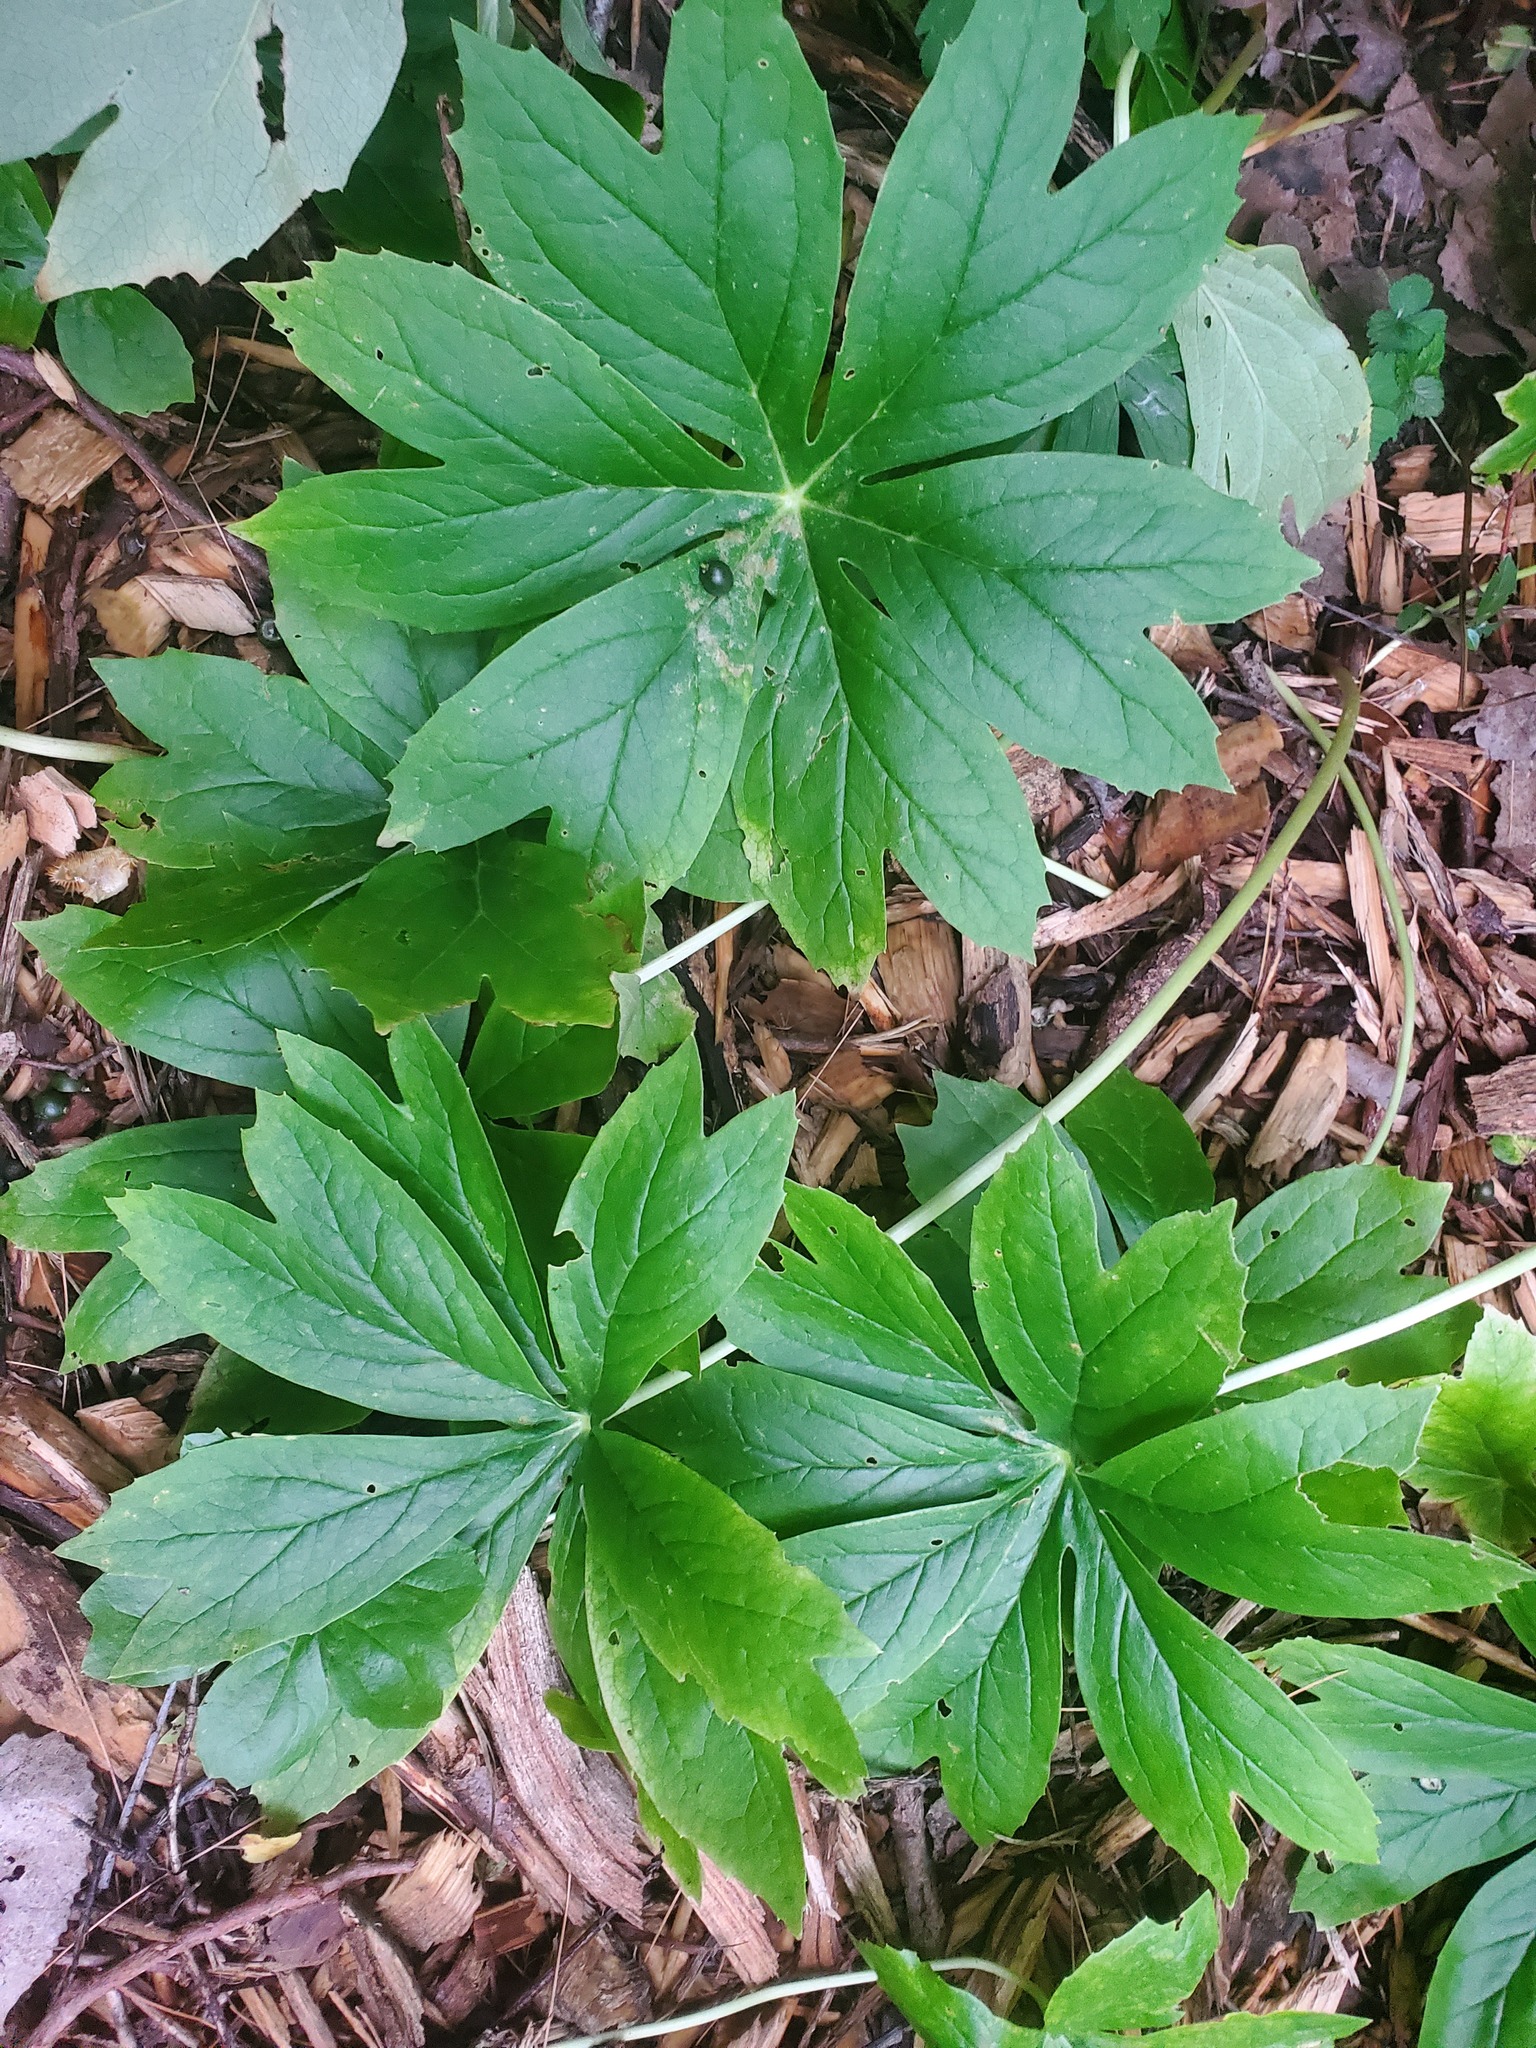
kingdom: Plantae
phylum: Tracheophyta
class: Magnoliopsida
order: Ranunculales
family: Berberidaceae
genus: Podophyllum
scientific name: Podophyllum peltatum
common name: Wild mandrake
